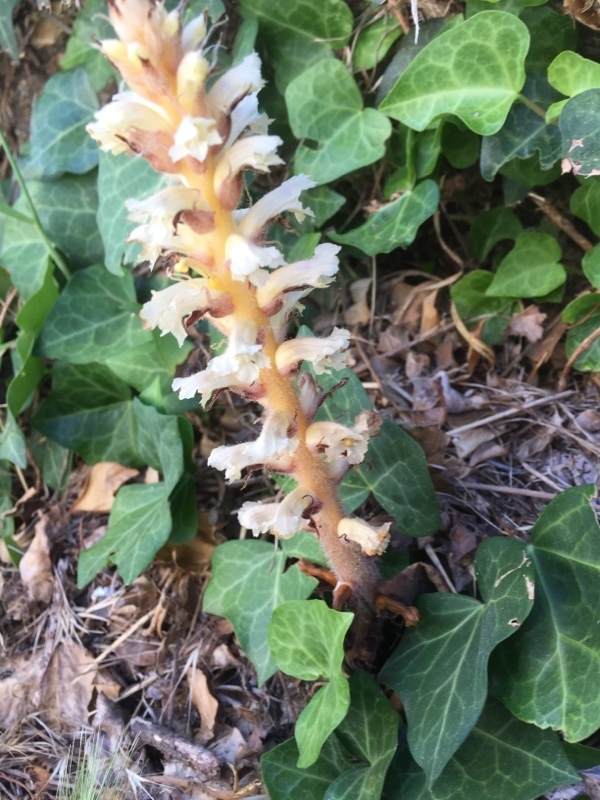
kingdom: Plantae
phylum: Tracheophyta
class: Magnoliopsida
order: Lamiales
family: Orobanchaceae
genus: Orobanche
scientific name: Orobanche hederae
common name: Ivy broomrape
